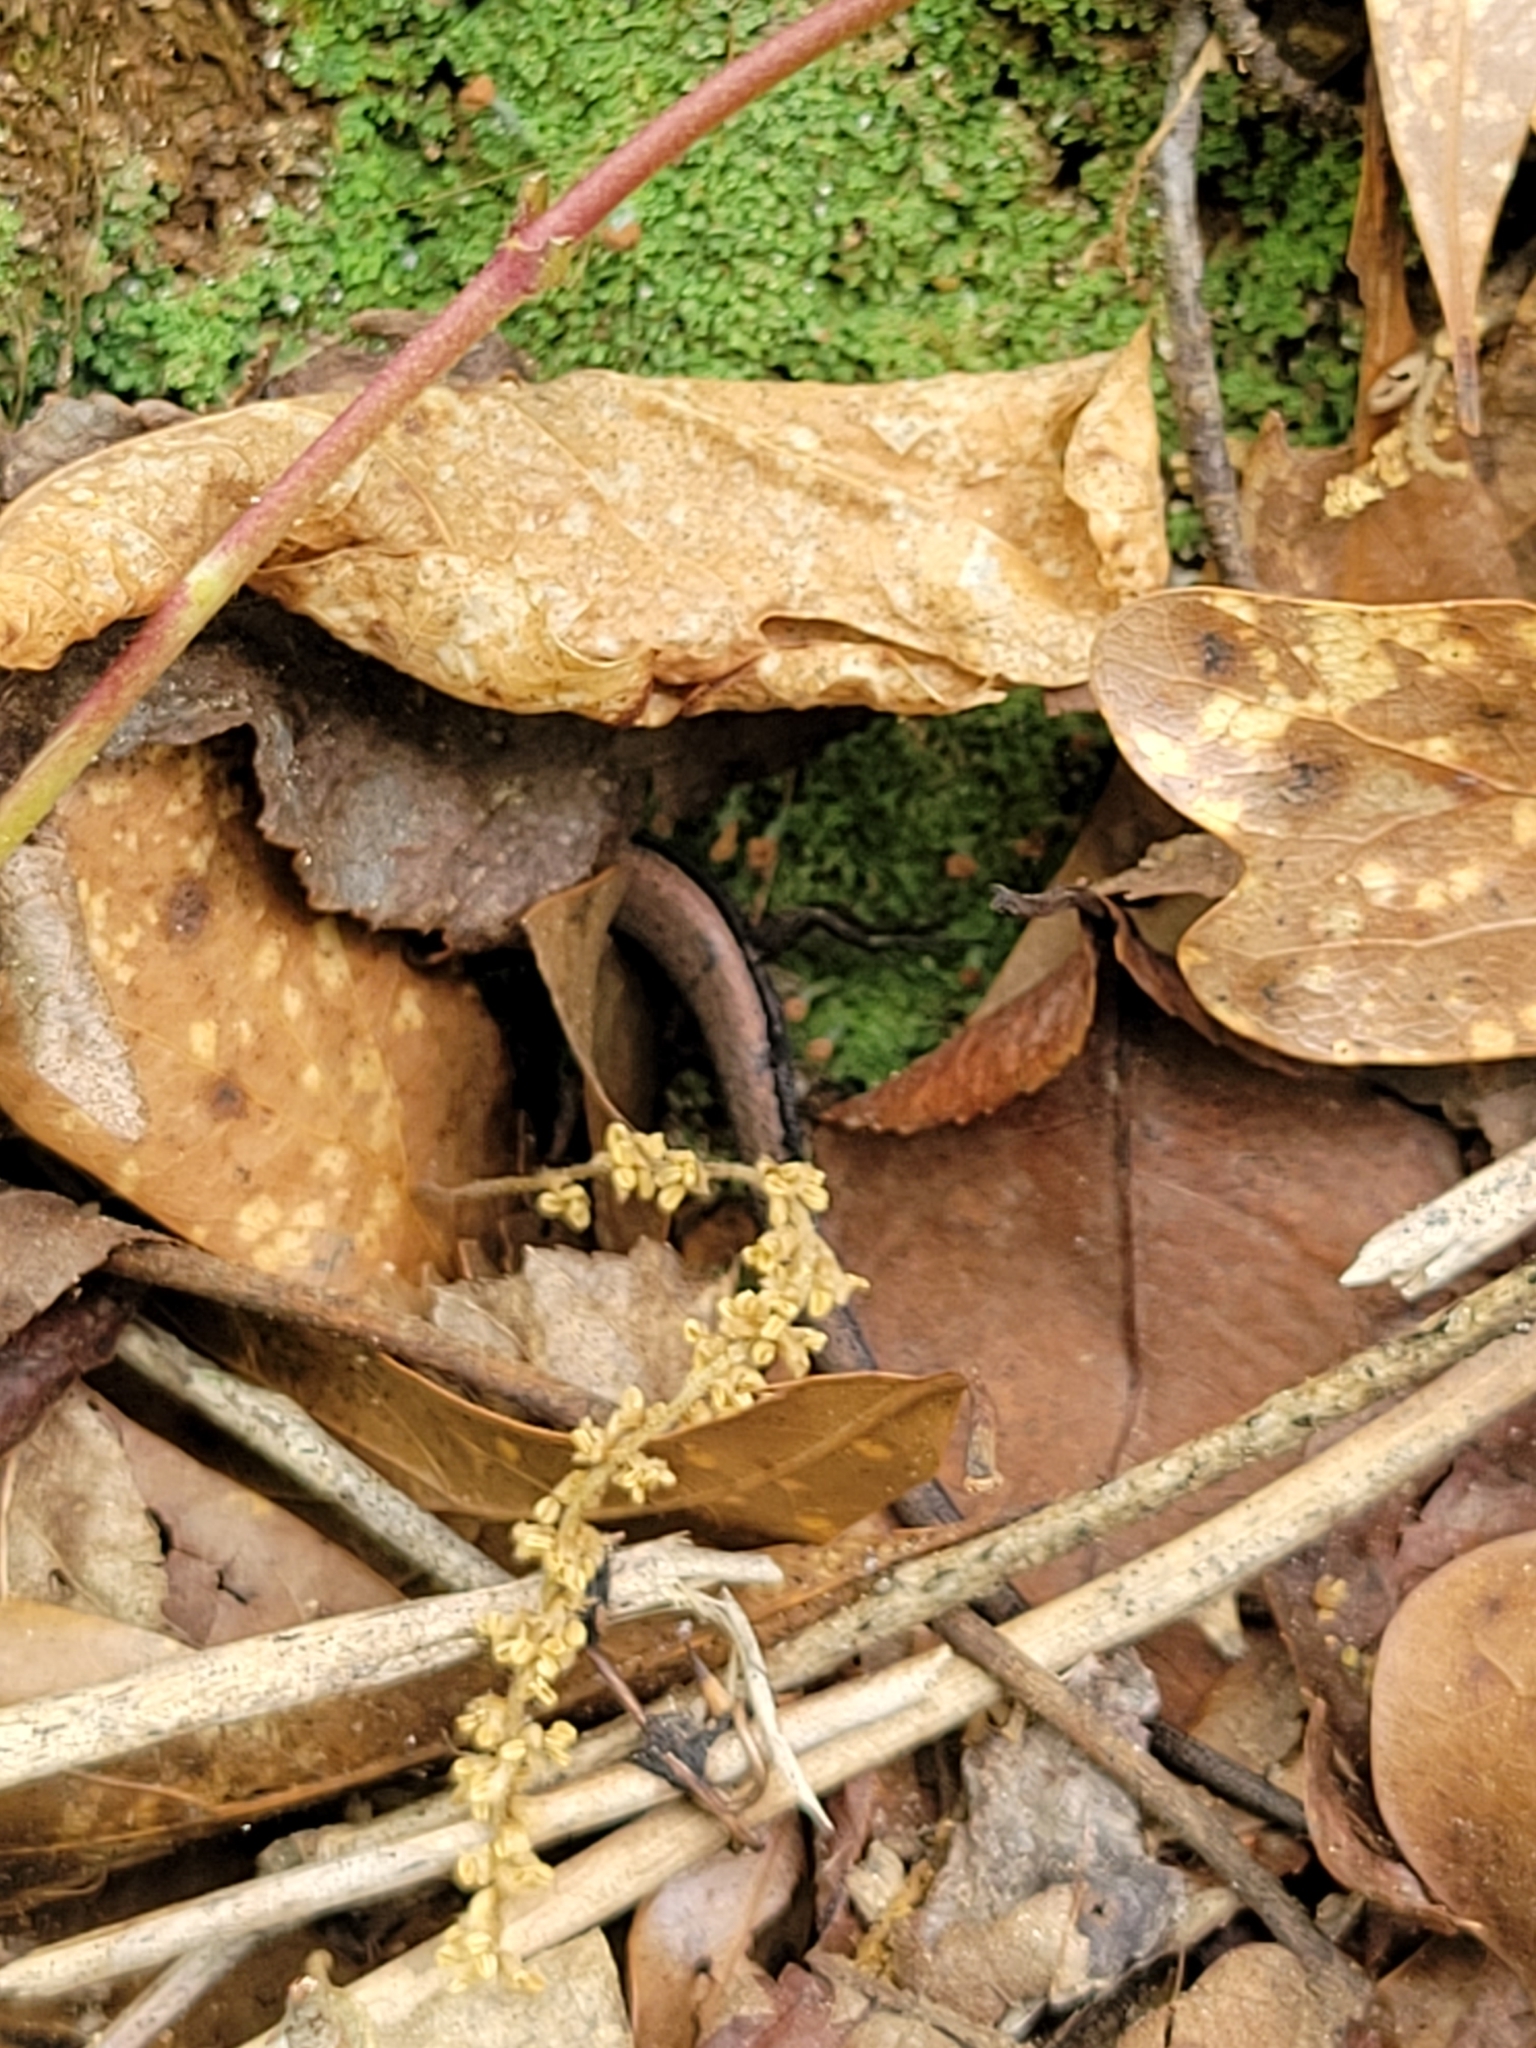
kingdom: Animalia
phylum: Chordata
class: Squamata
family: Scincidae
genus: Scincella
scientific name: Scincella lateralis
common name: Ground skink
